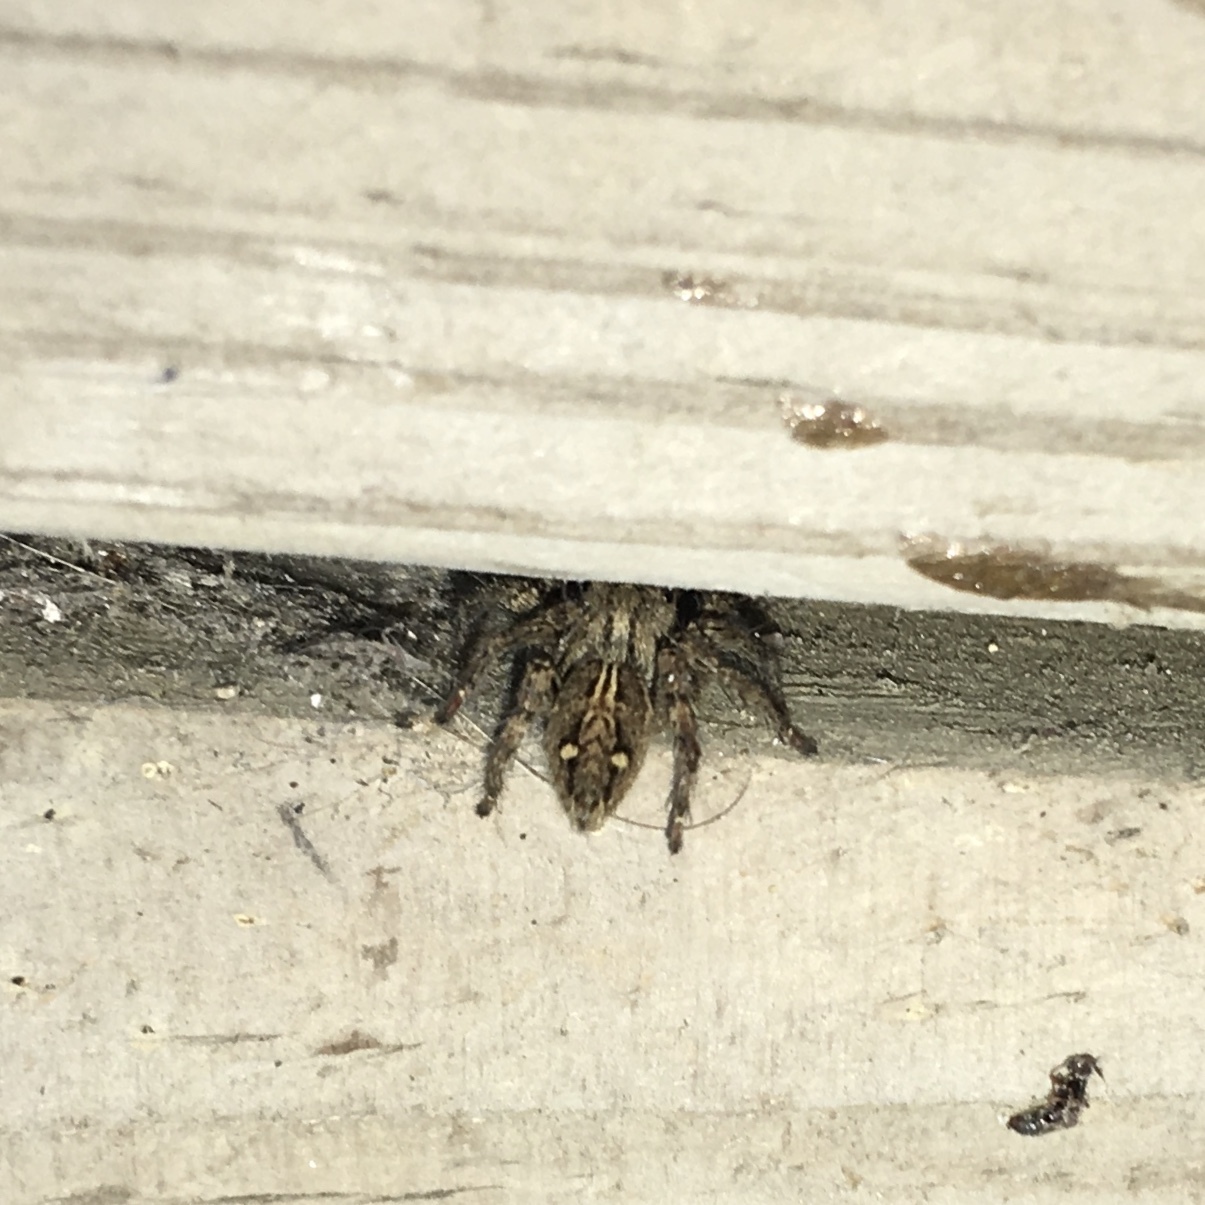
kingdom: Animalia
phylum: Arthropoda
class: Arachnida
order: Araneae
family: Salticidae
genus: Plexippus
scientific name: Plexippus paykulli
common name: Pantropical jumper
